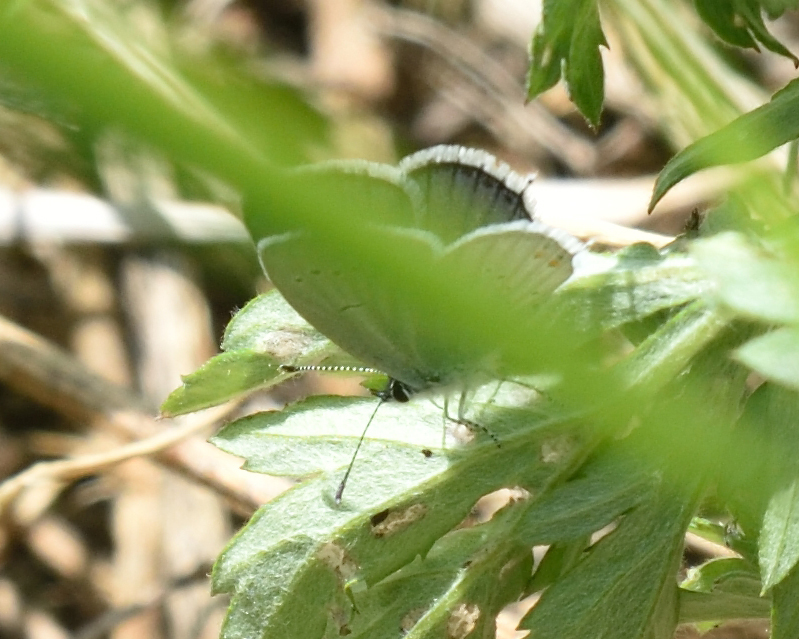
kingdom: Animalia
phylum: Arthropoda
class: Insecta
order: Lepidoptera
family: Lycaenidae
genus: Elkalyce
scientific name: Elkalyce argiades
